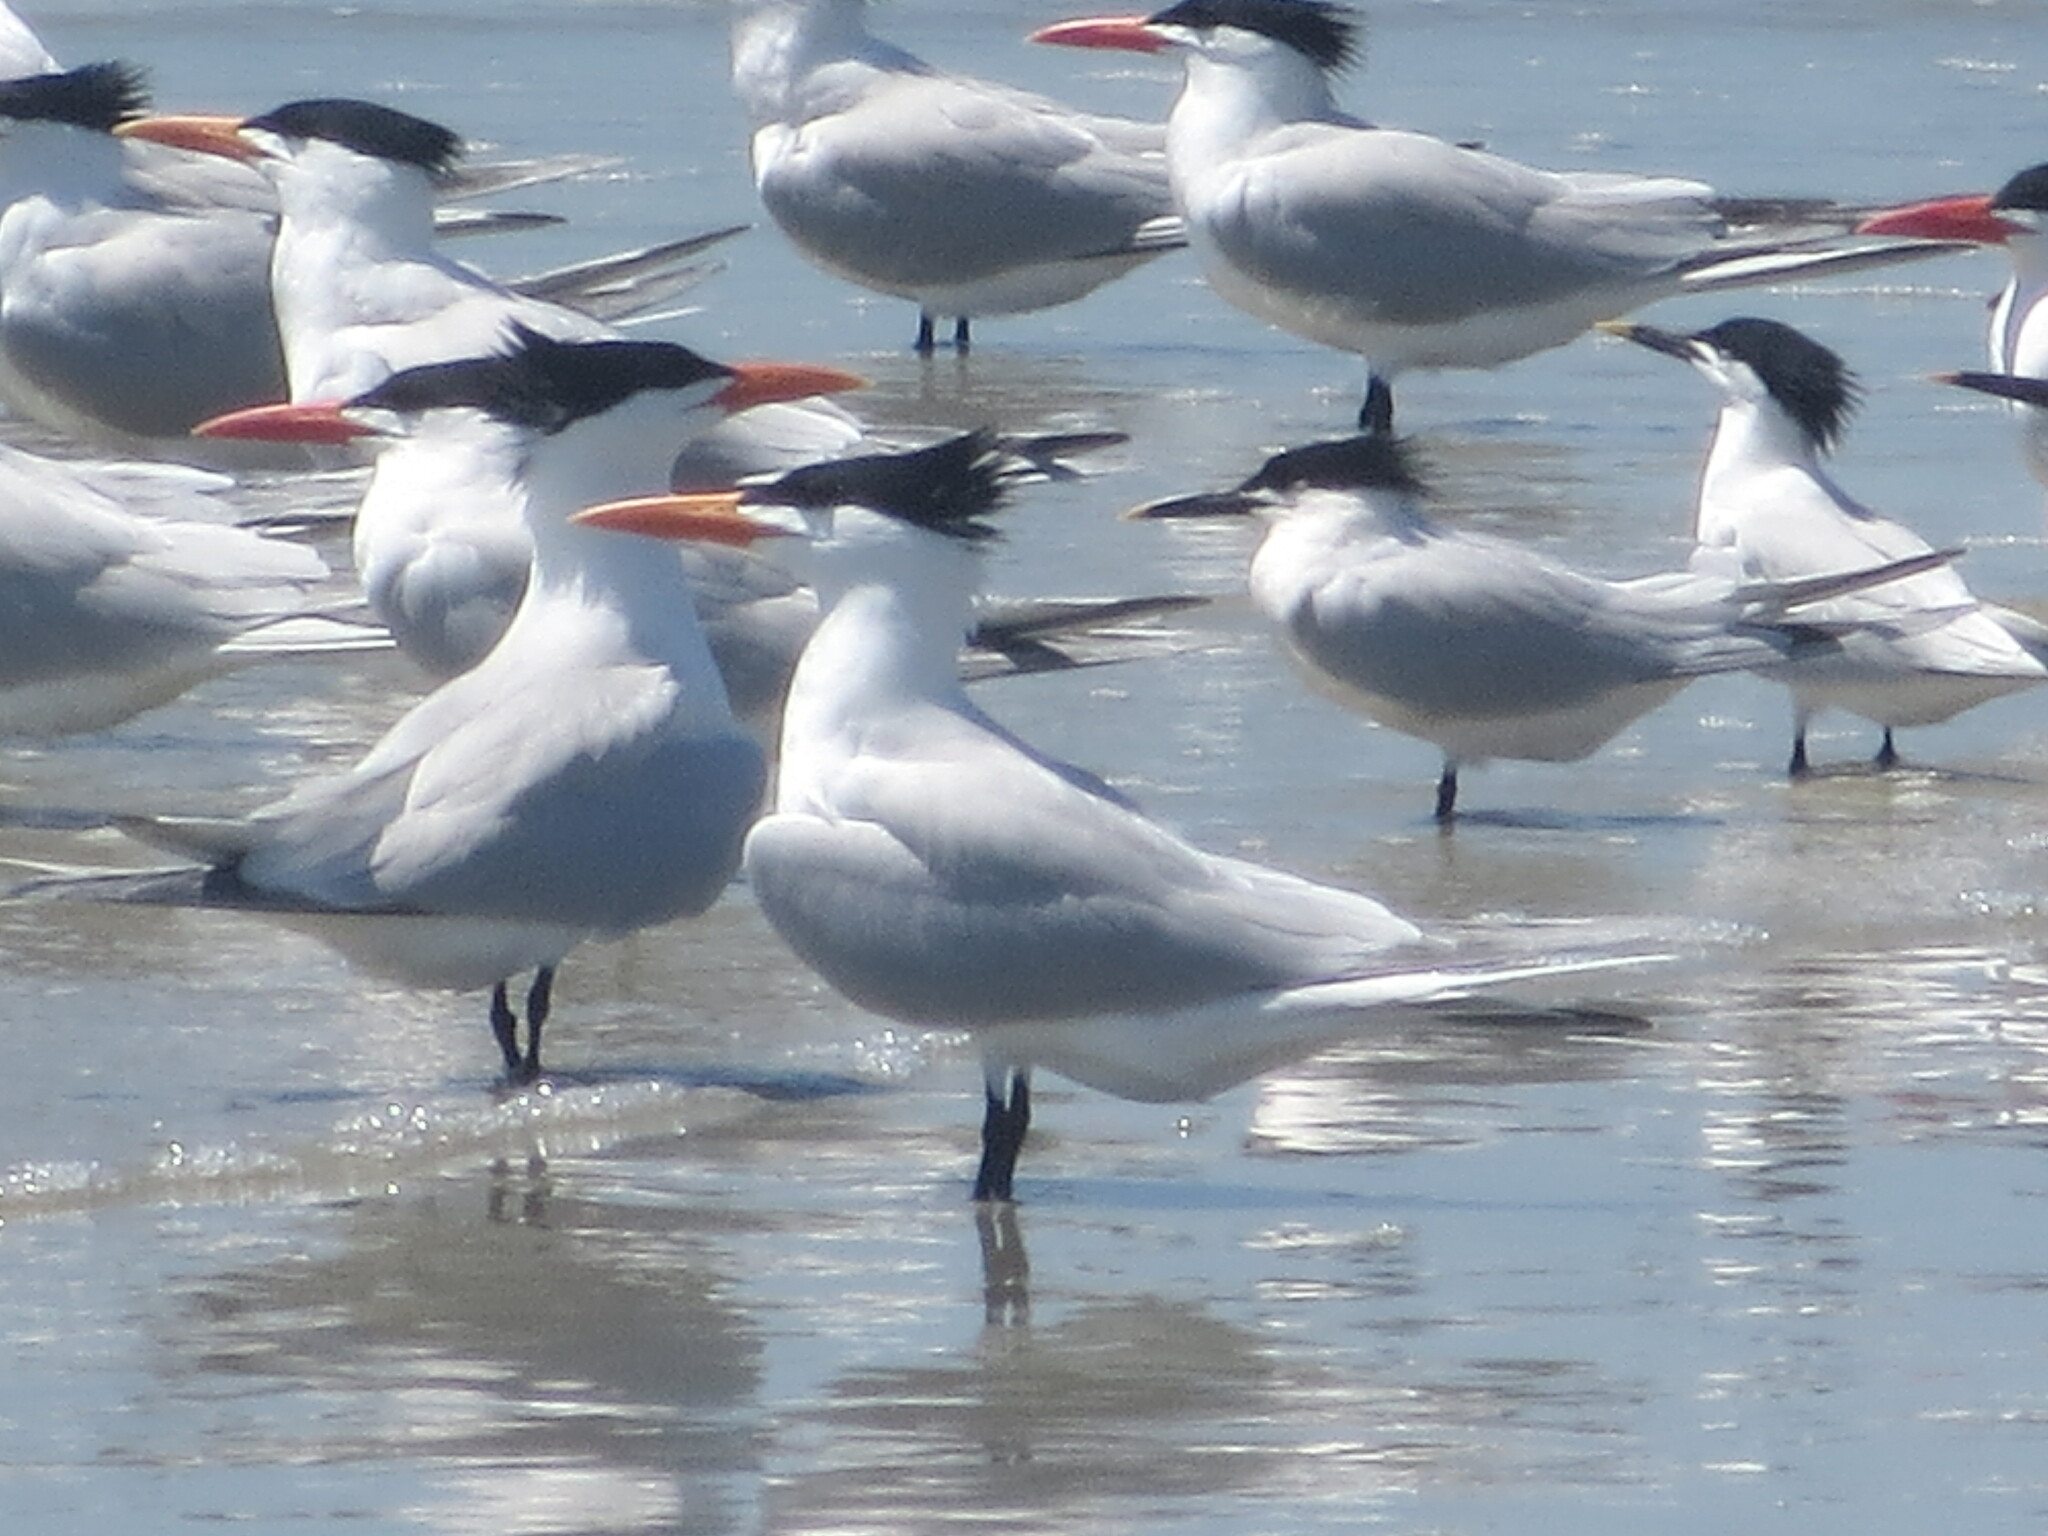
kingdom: Animalia
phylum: Chordata
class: Aves
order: Charadriiformes
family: Laridae
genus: Thalasseus
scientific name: Thalasseus maximus
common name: Royal tern
